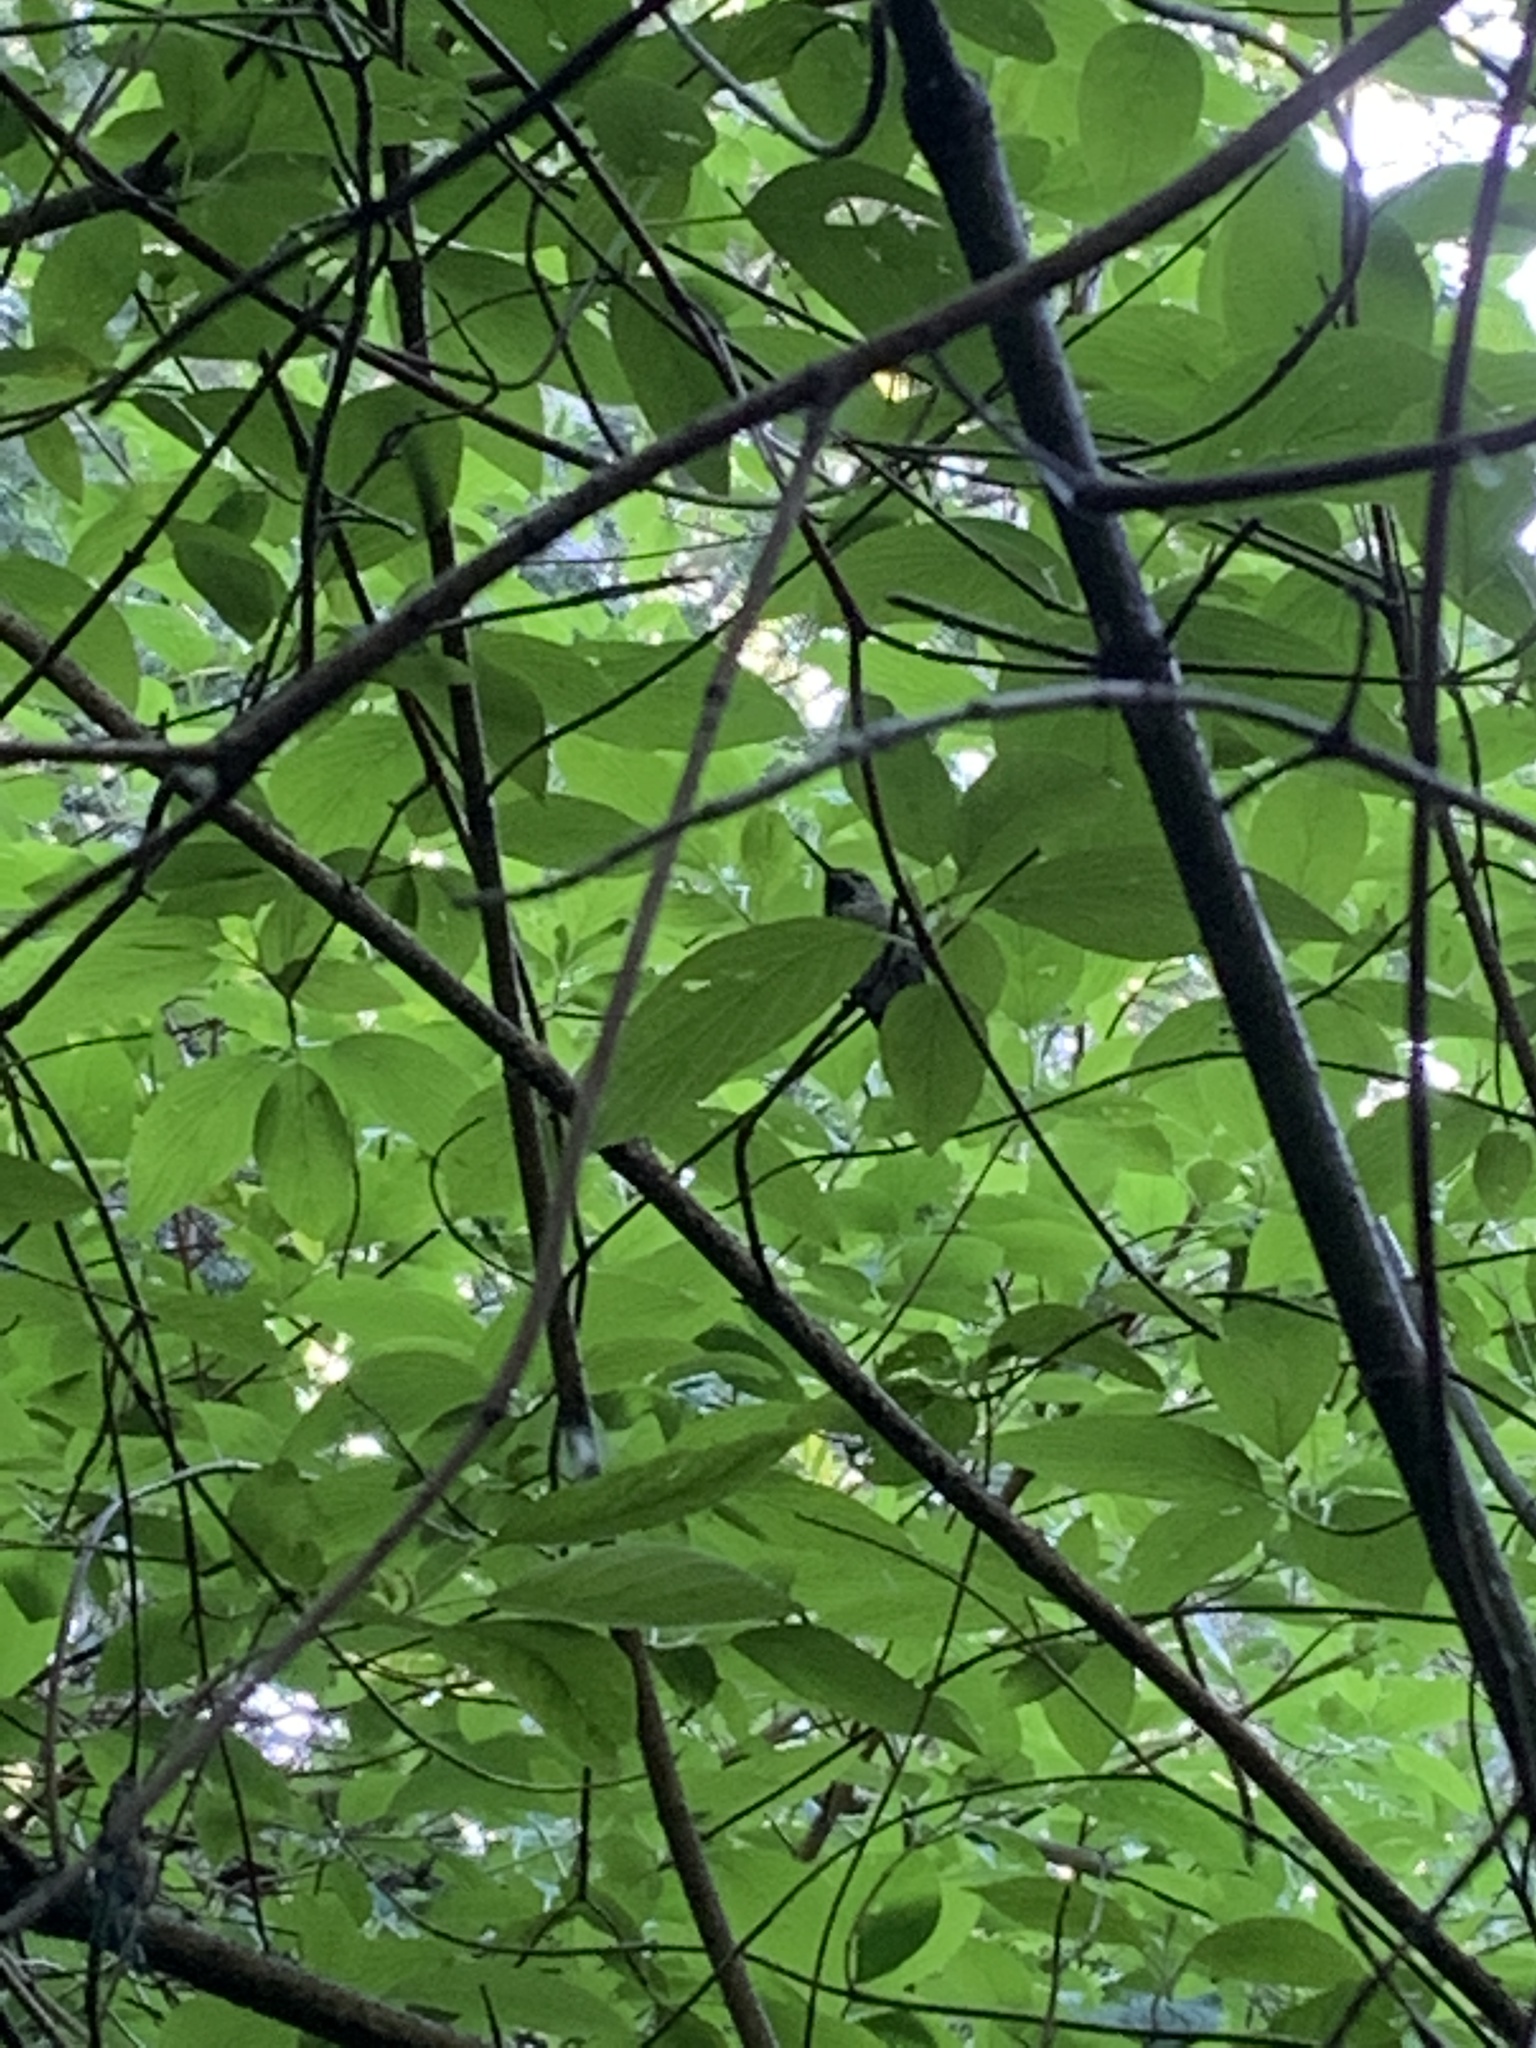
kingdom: Animalia
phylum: Chordata
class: Aves
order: Apodiformes
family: Trochilidae
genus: Calypte
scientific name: Calypte anna
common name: Anna's hummingbird
